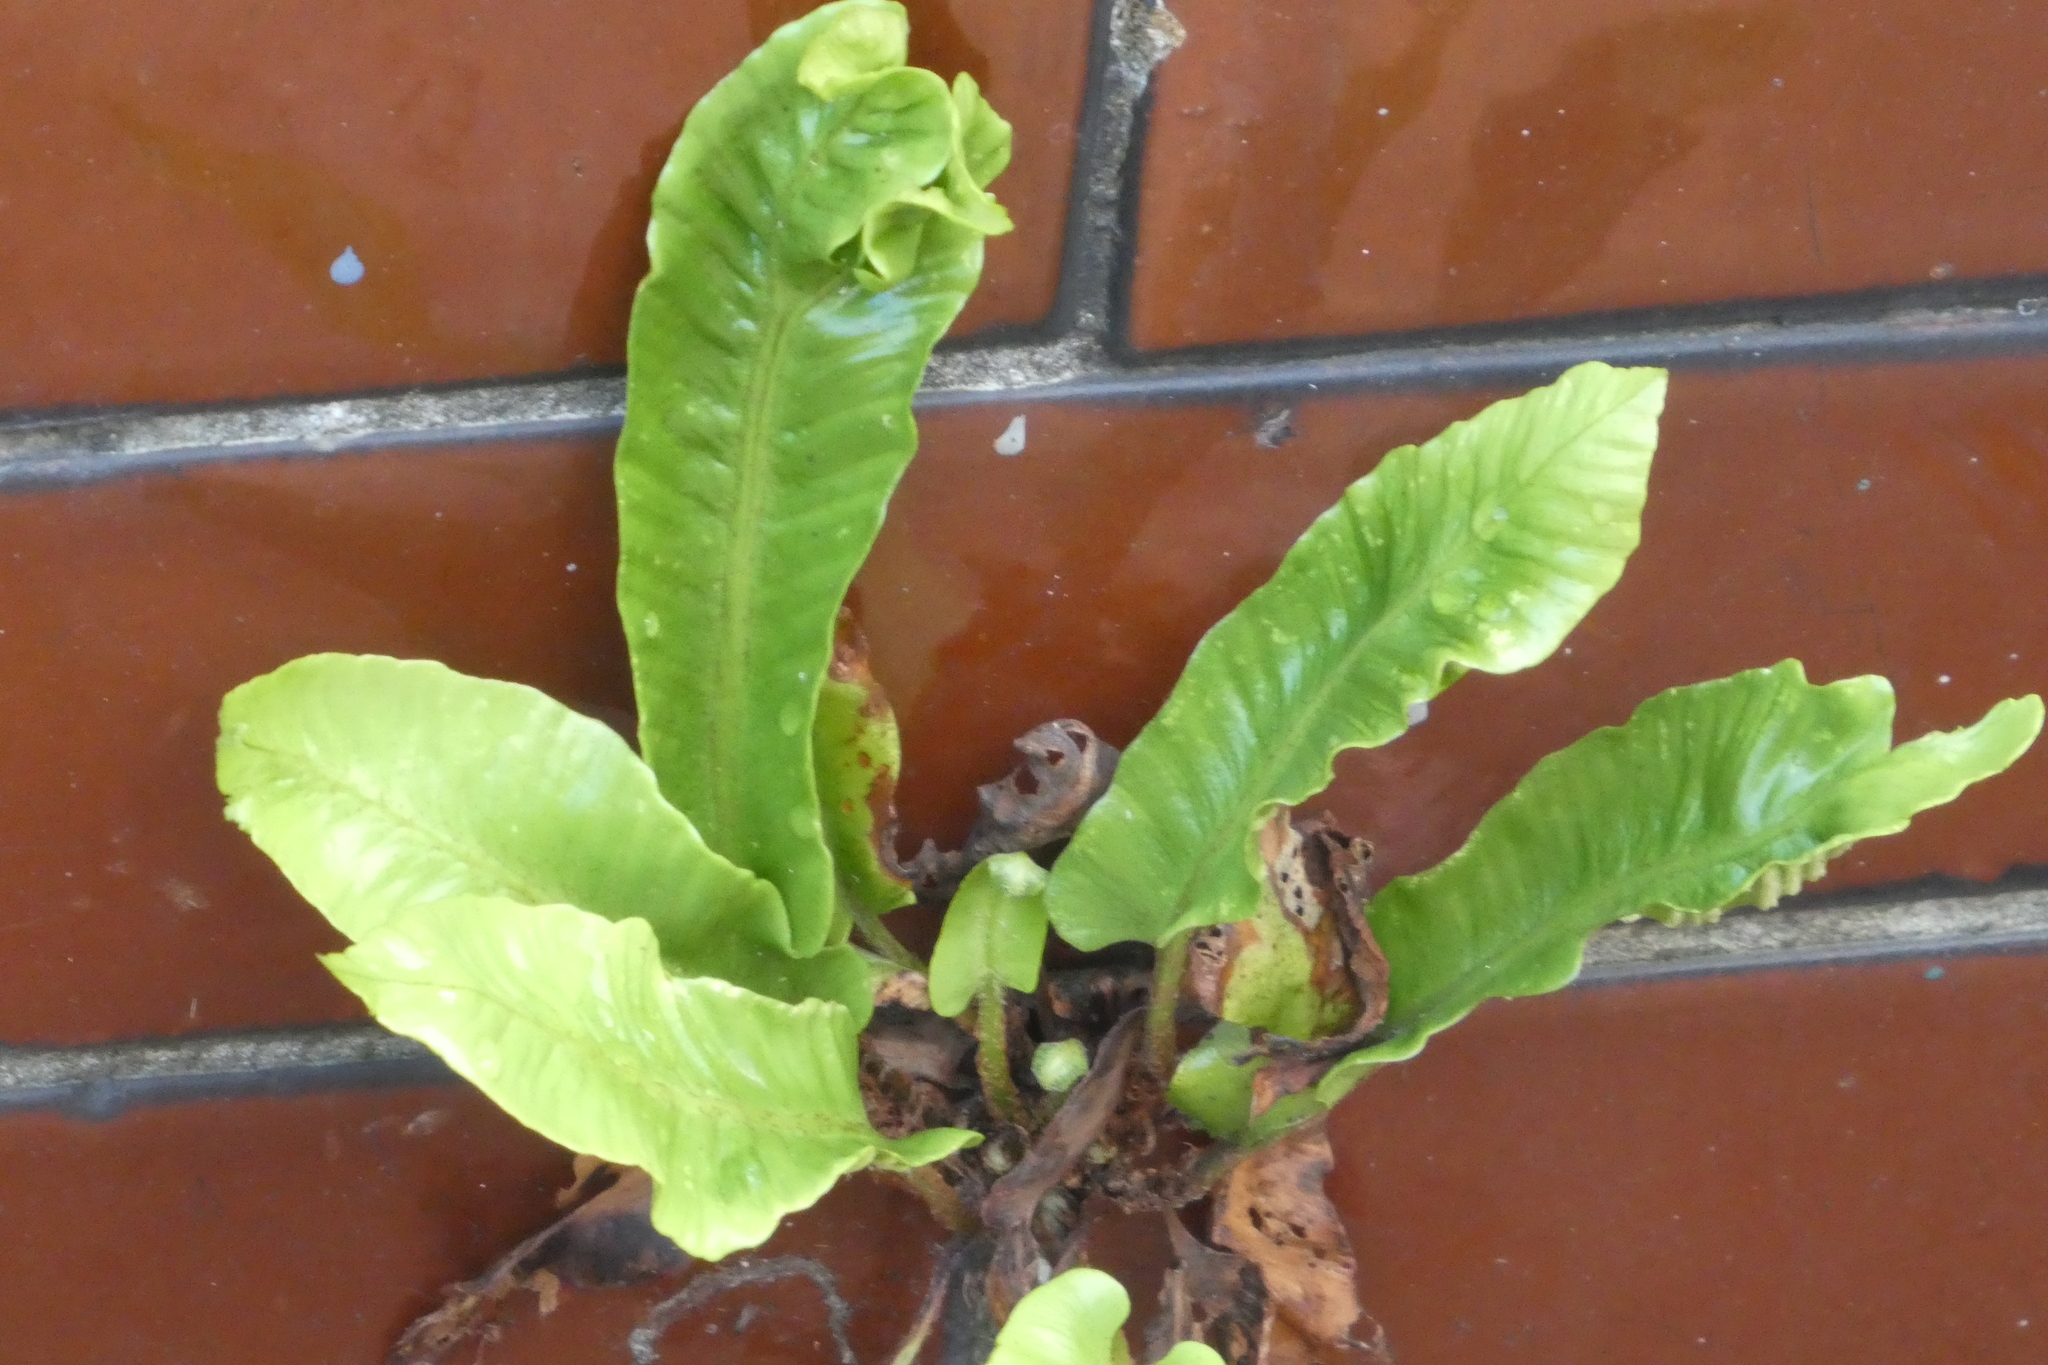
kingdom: Plantae
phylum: Tracheophyta
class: Polypodiopsida
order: Polypodiales
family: Aspleniaceae
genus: Asplenium
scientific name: Asplenium scolopendrium
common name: Hart's-tongue fern
